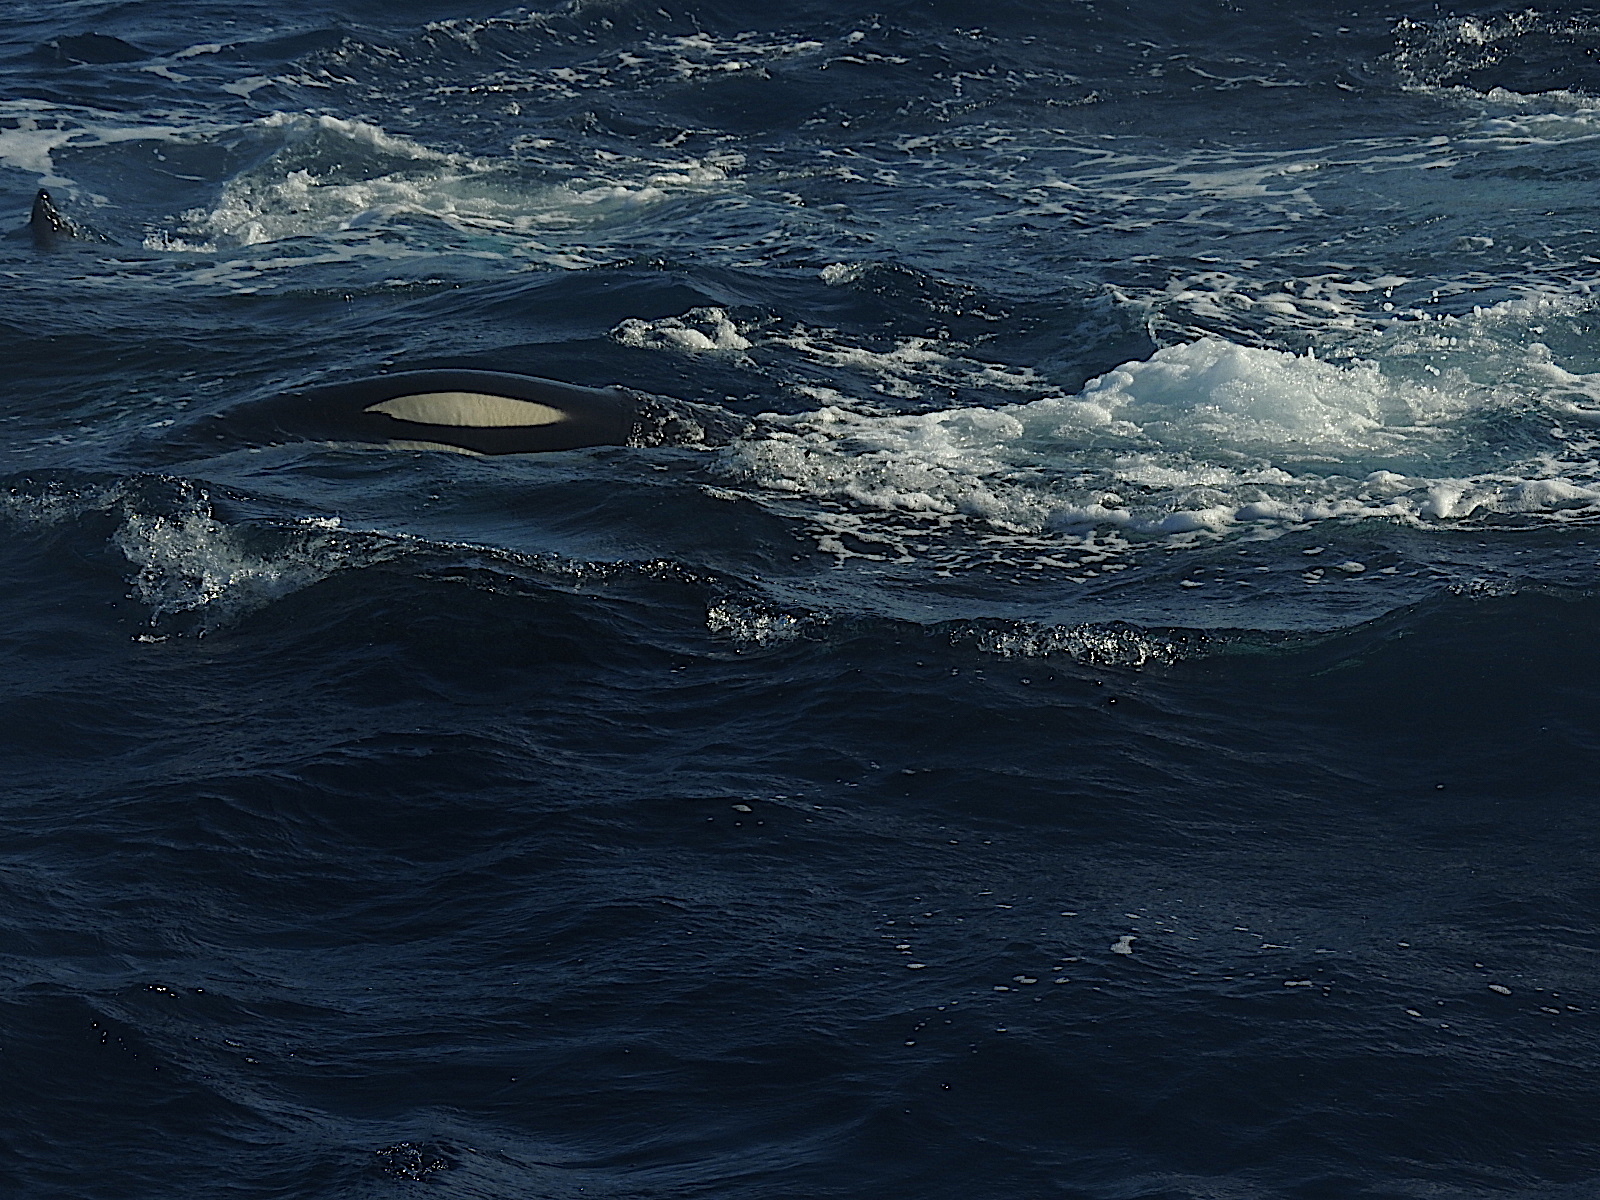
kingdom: Animalia
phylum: Chordata
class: Mammalia
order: Cetacea
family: Delphinidae
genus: Orcinus
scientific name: Orcinus orca
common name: Killer whale
